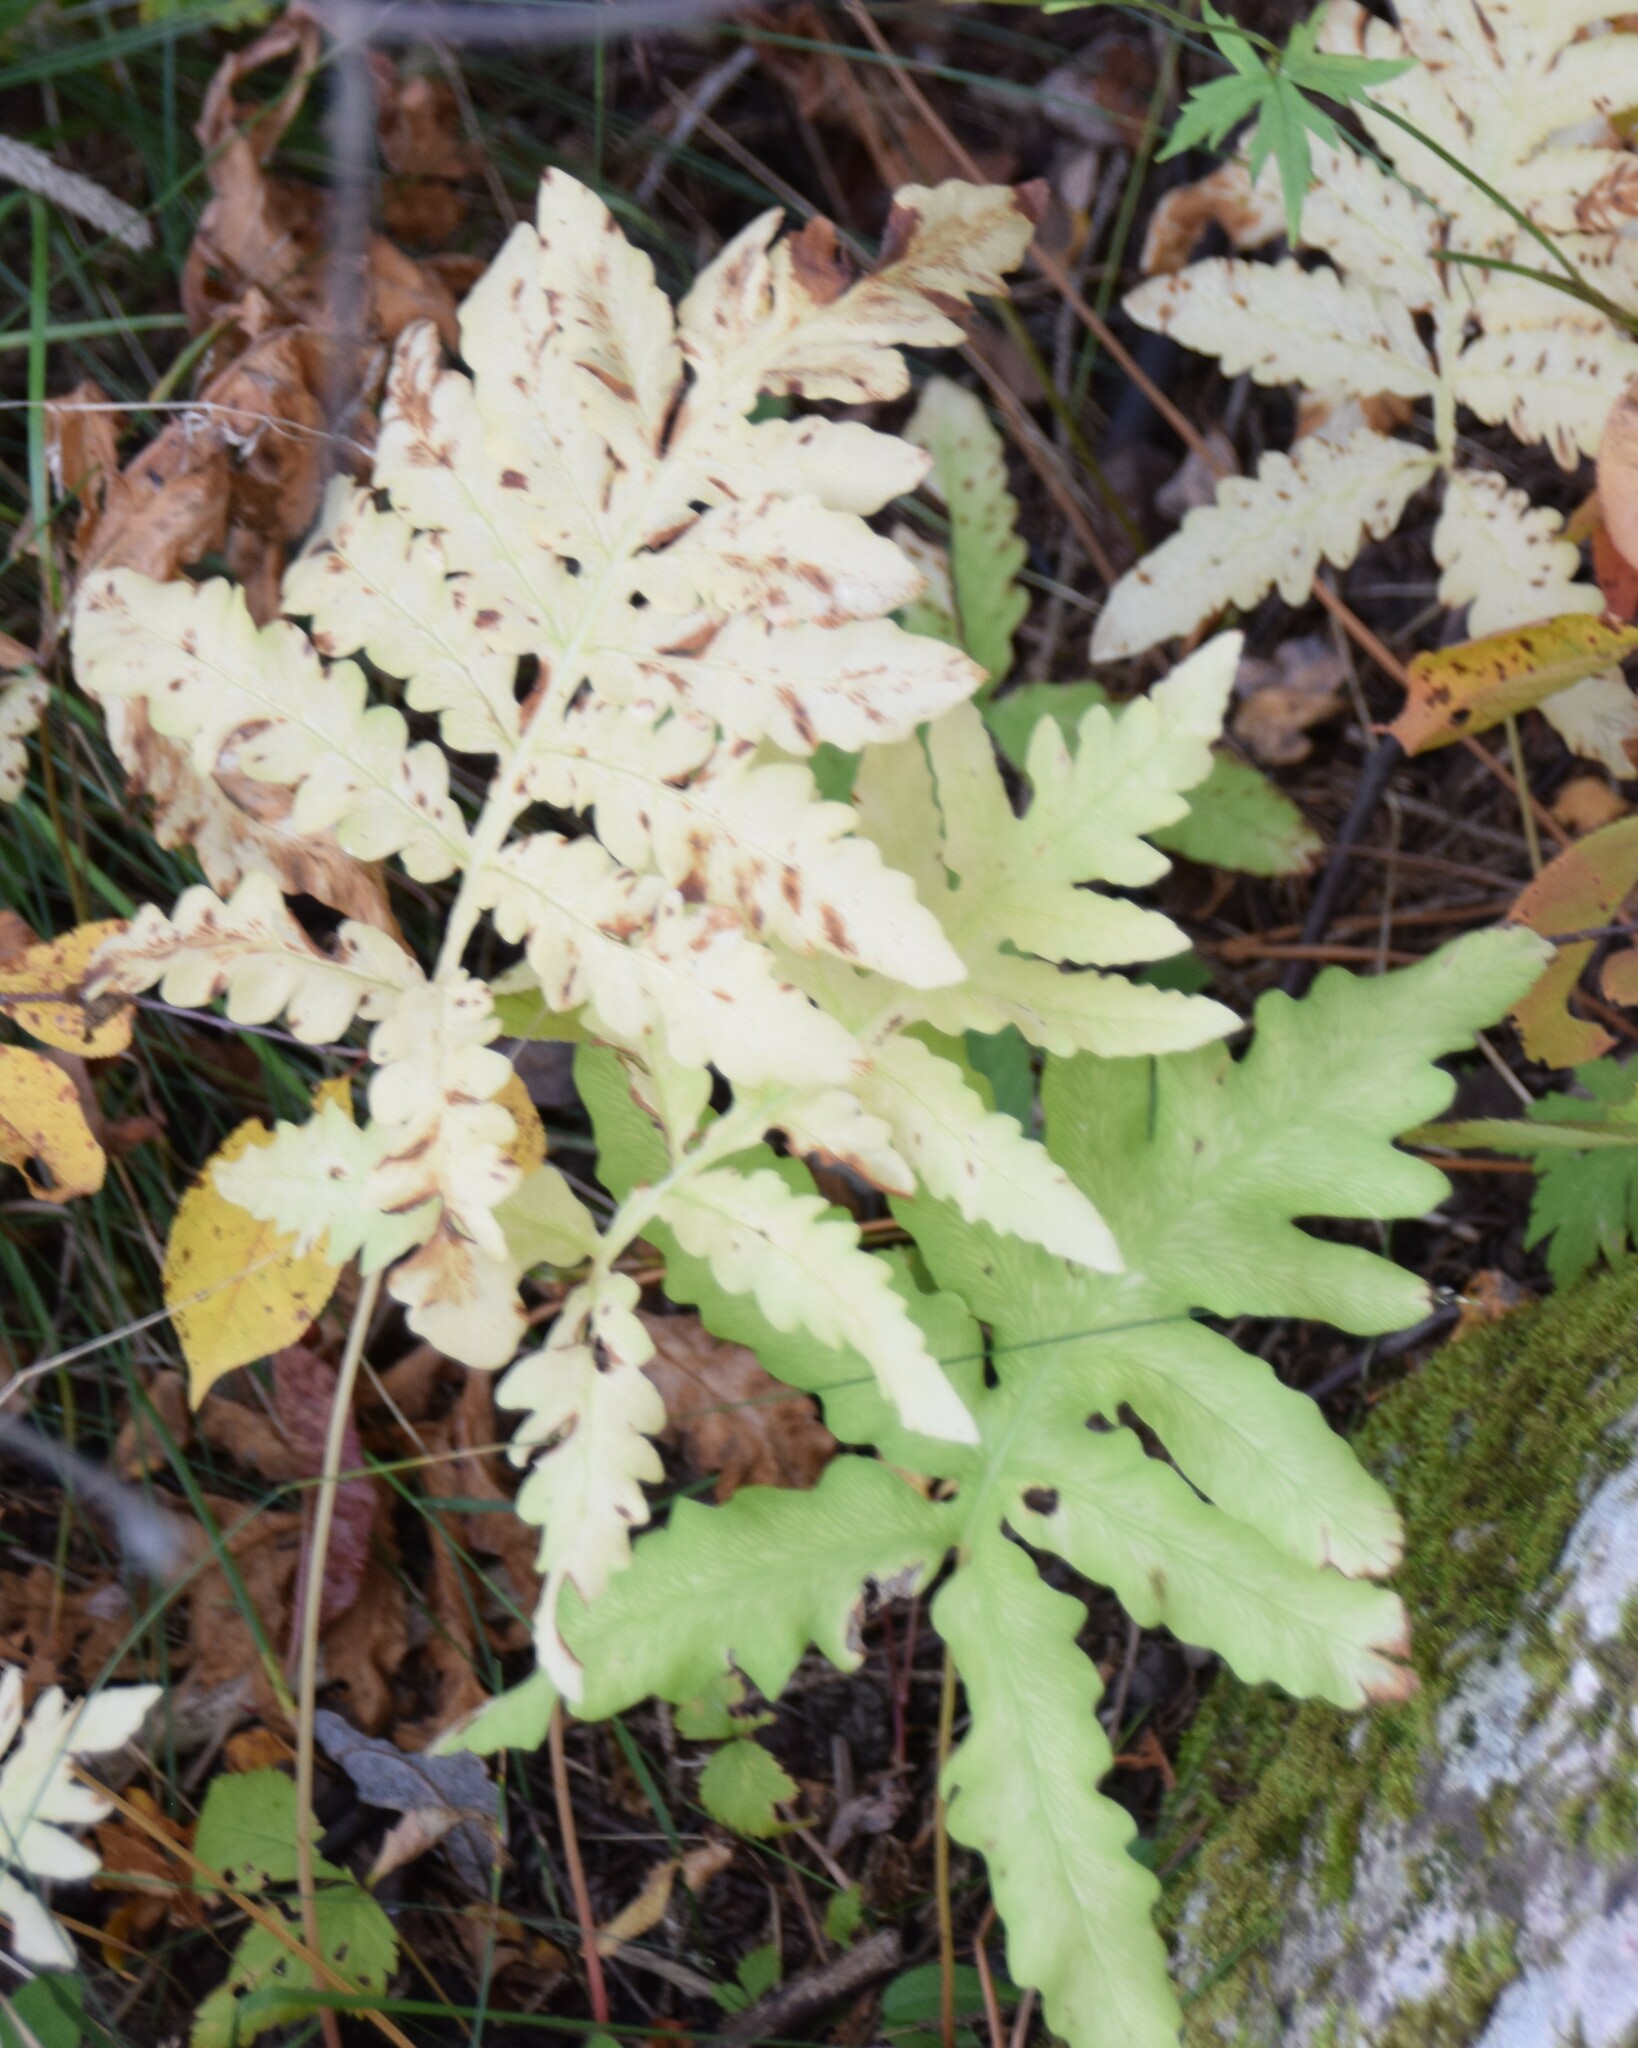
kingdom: Plantae
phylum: Tracheophyta
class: Polypodiopsida
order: Polypodiales
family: Onocleaceae
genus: Onoclea
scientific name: Onoclea sensibilis
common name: Sensitive fern
